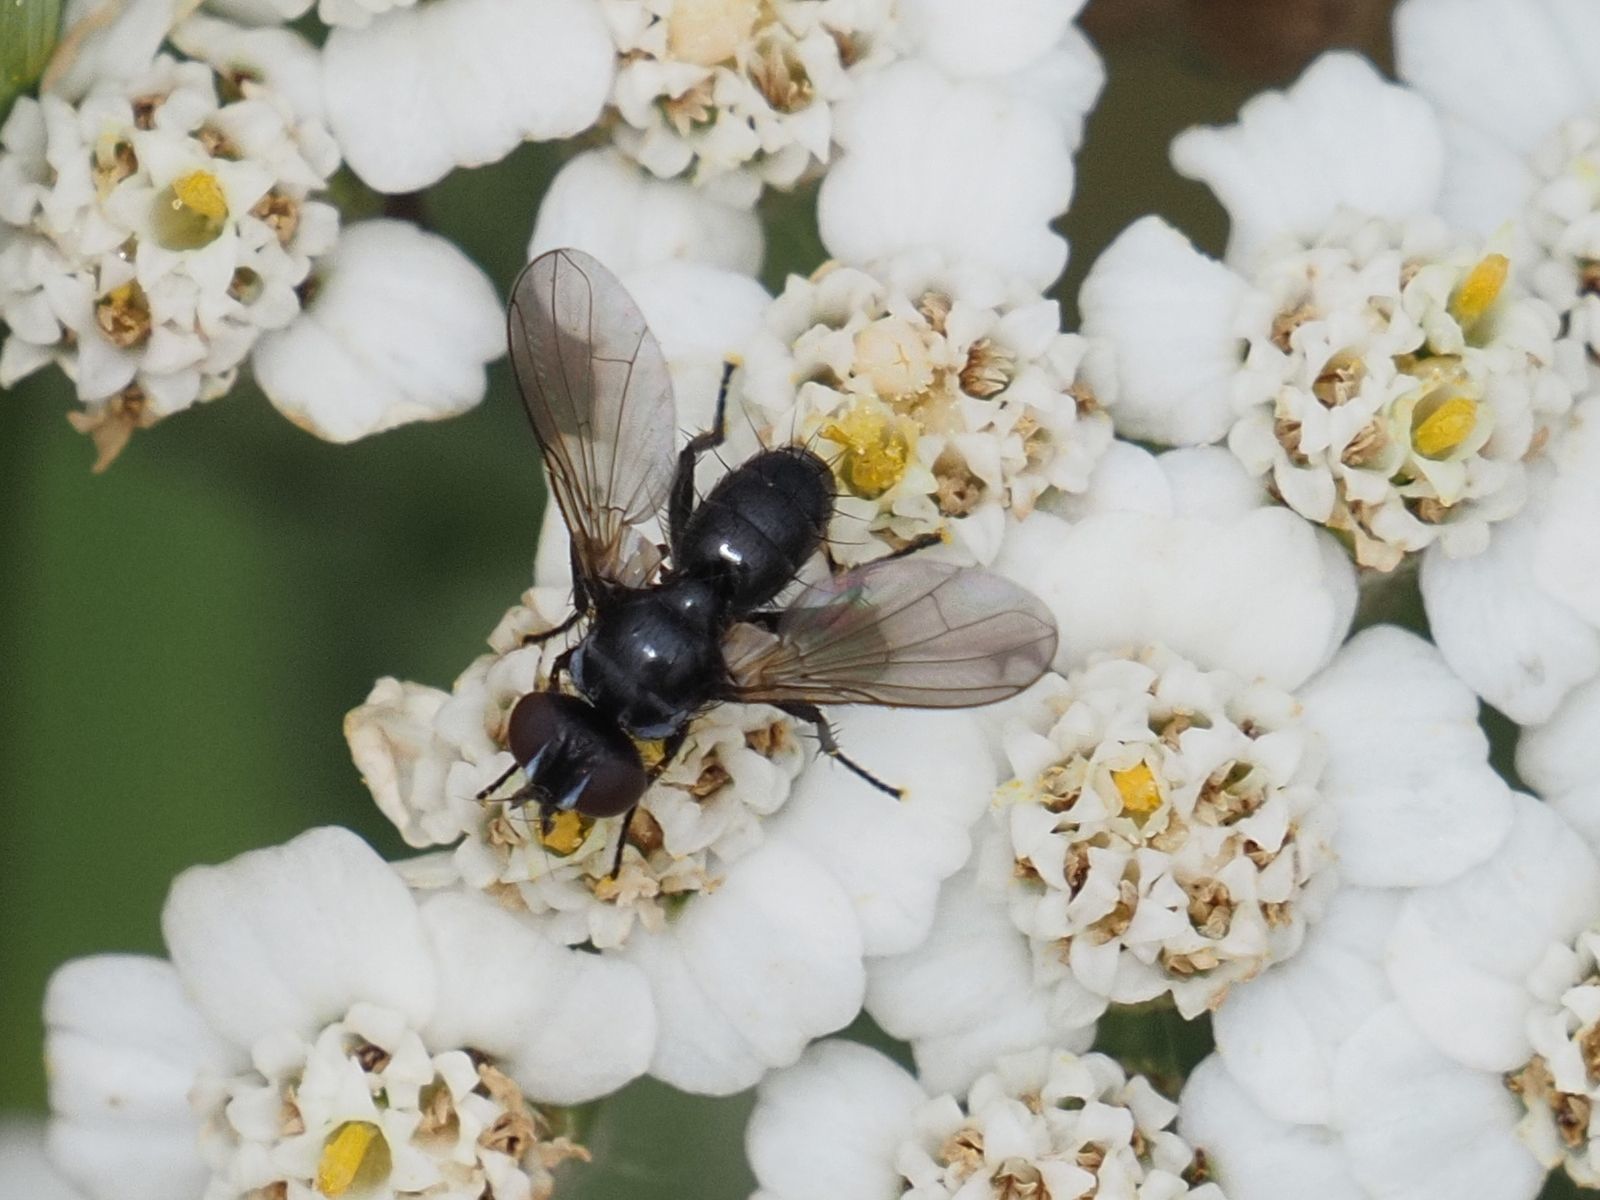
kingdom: Animalia
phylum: Arthropoda
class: Insecta
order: Diptera
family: Tachinidae
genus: Phania
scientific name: Phania funesta
